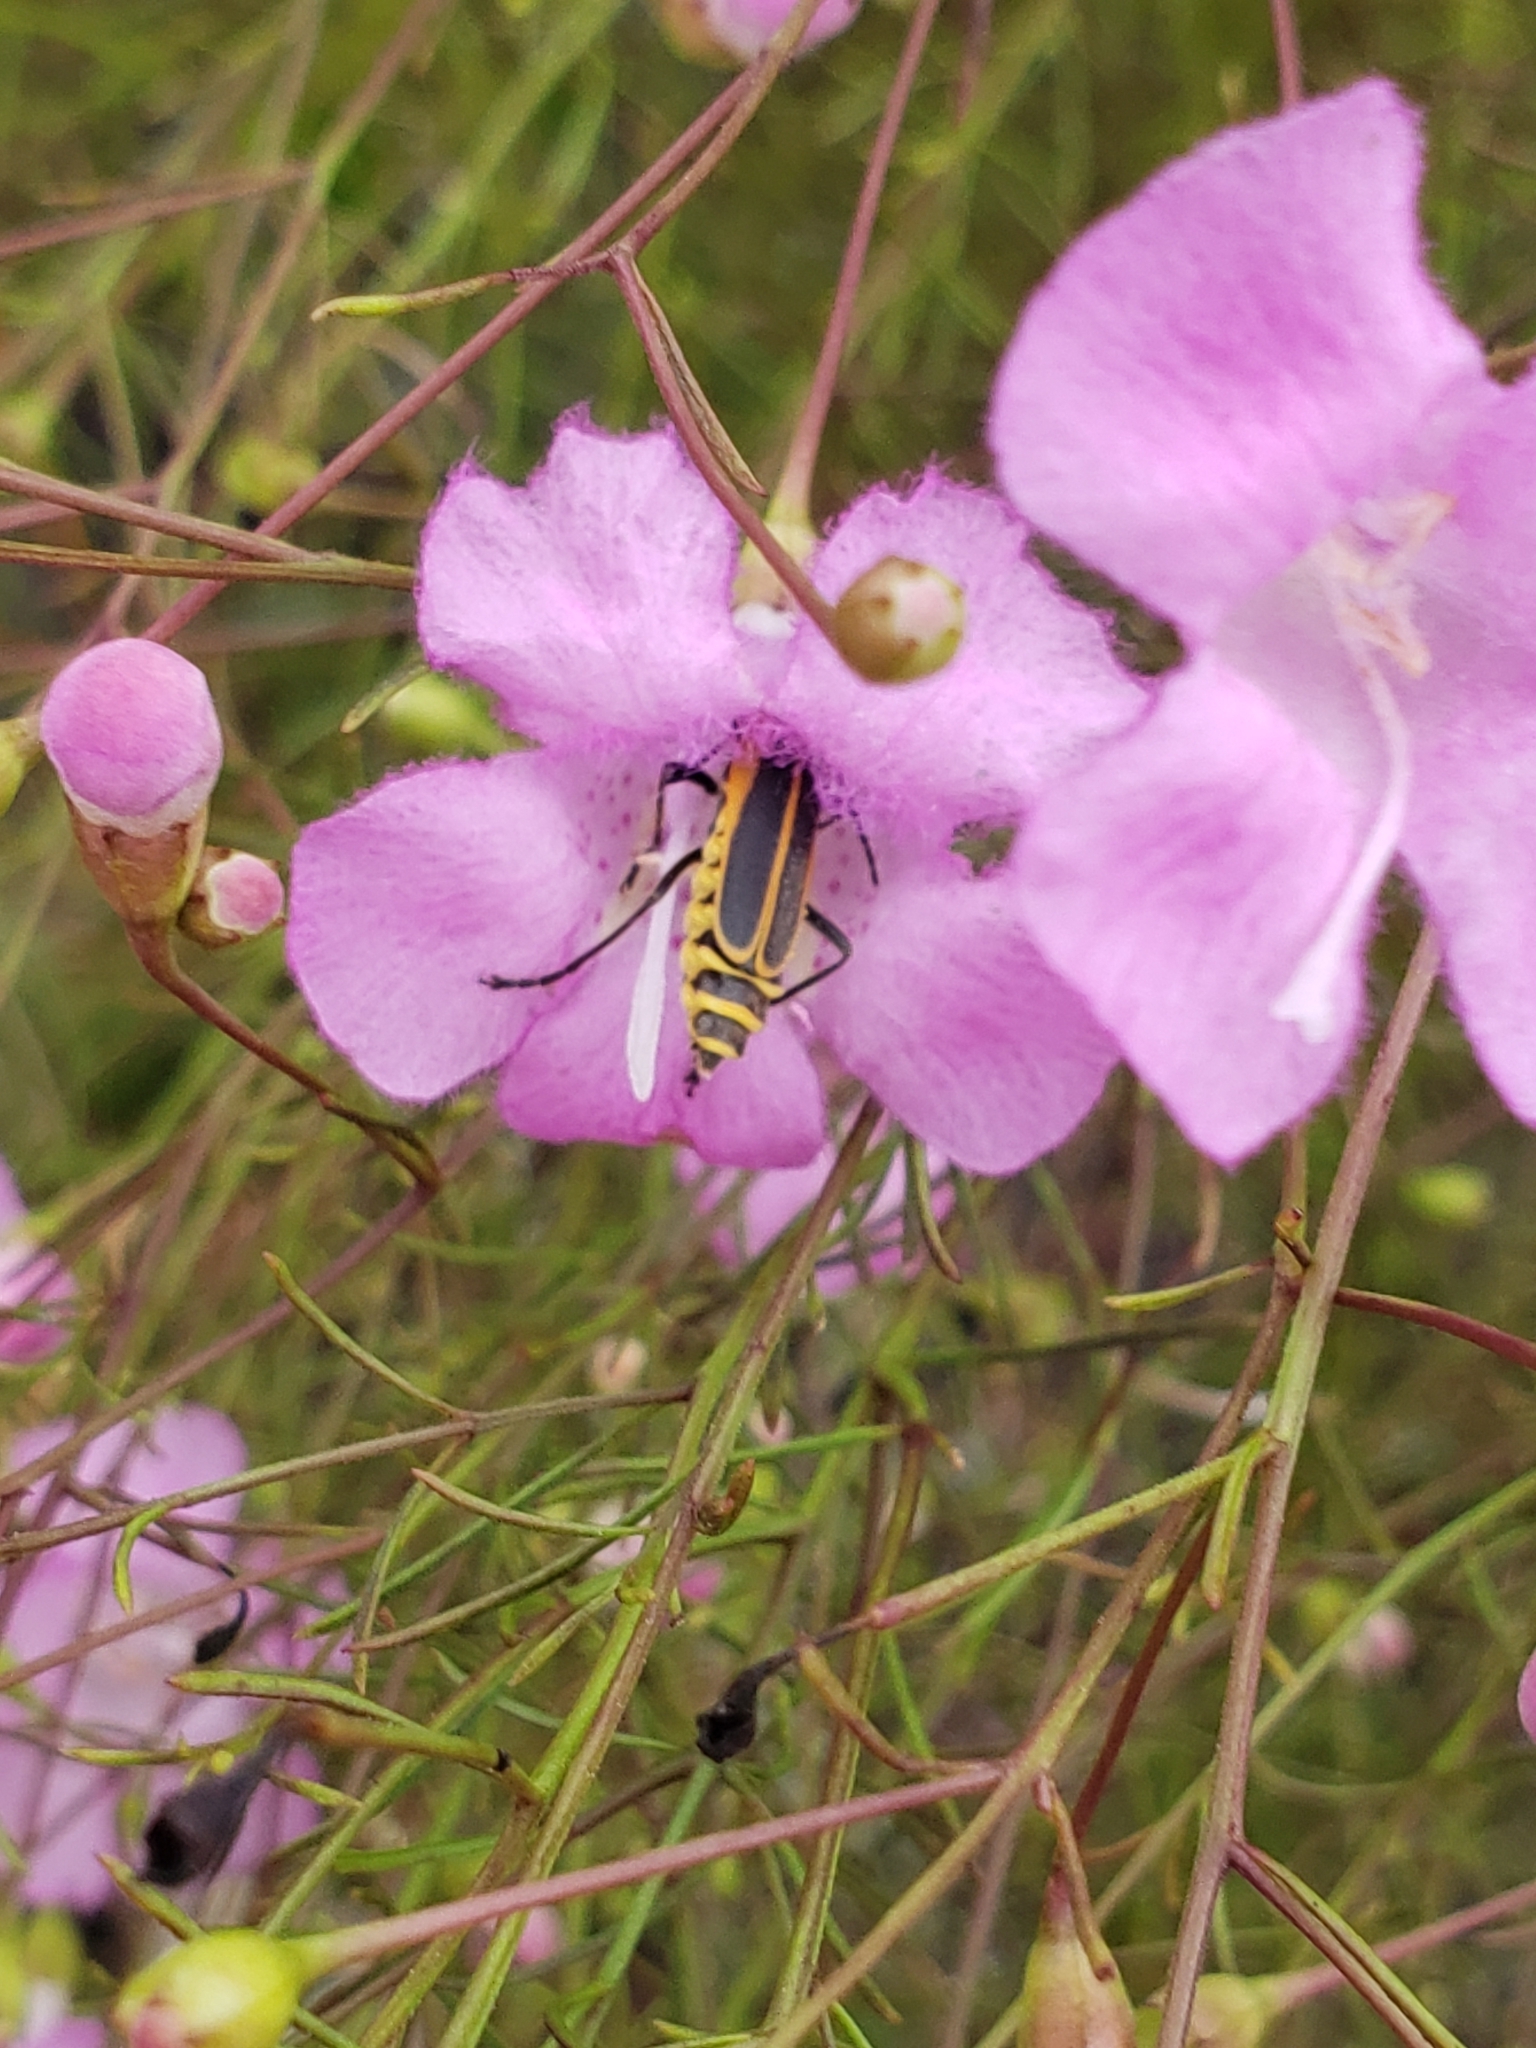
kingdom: Animalia
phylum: Arthropoda
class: Insecta
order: Coleoptera
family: Cantharidae
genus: Chauliognathus
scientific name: Chauliognathus pensylvanicus
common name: Goldenrod soldier beetle
